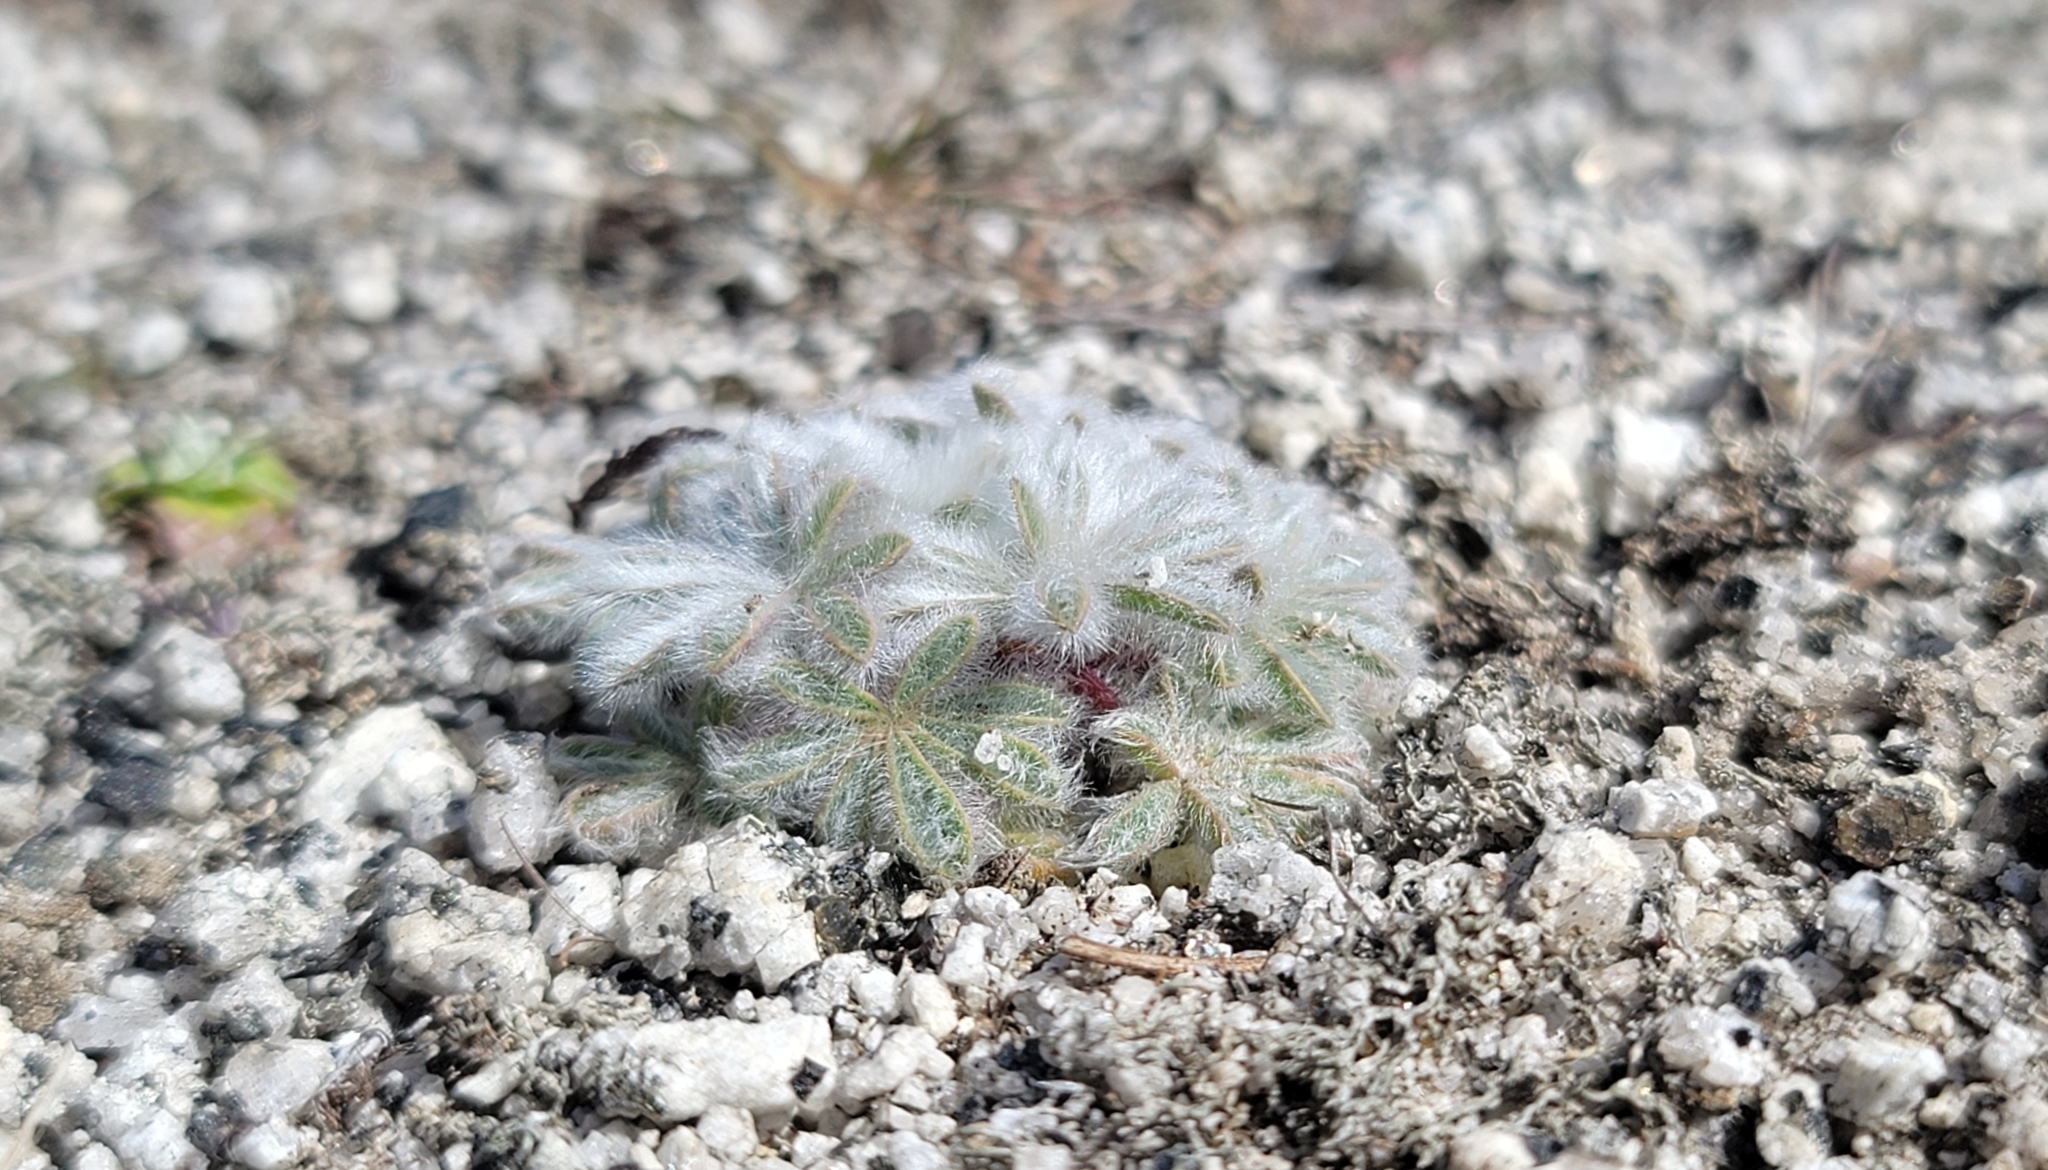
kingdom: Plantae
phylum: Tracheophyta
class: Magnoliopsida
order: Fabales
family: Fabaceae
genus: Lupinus
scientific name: Lupinus citrinus
